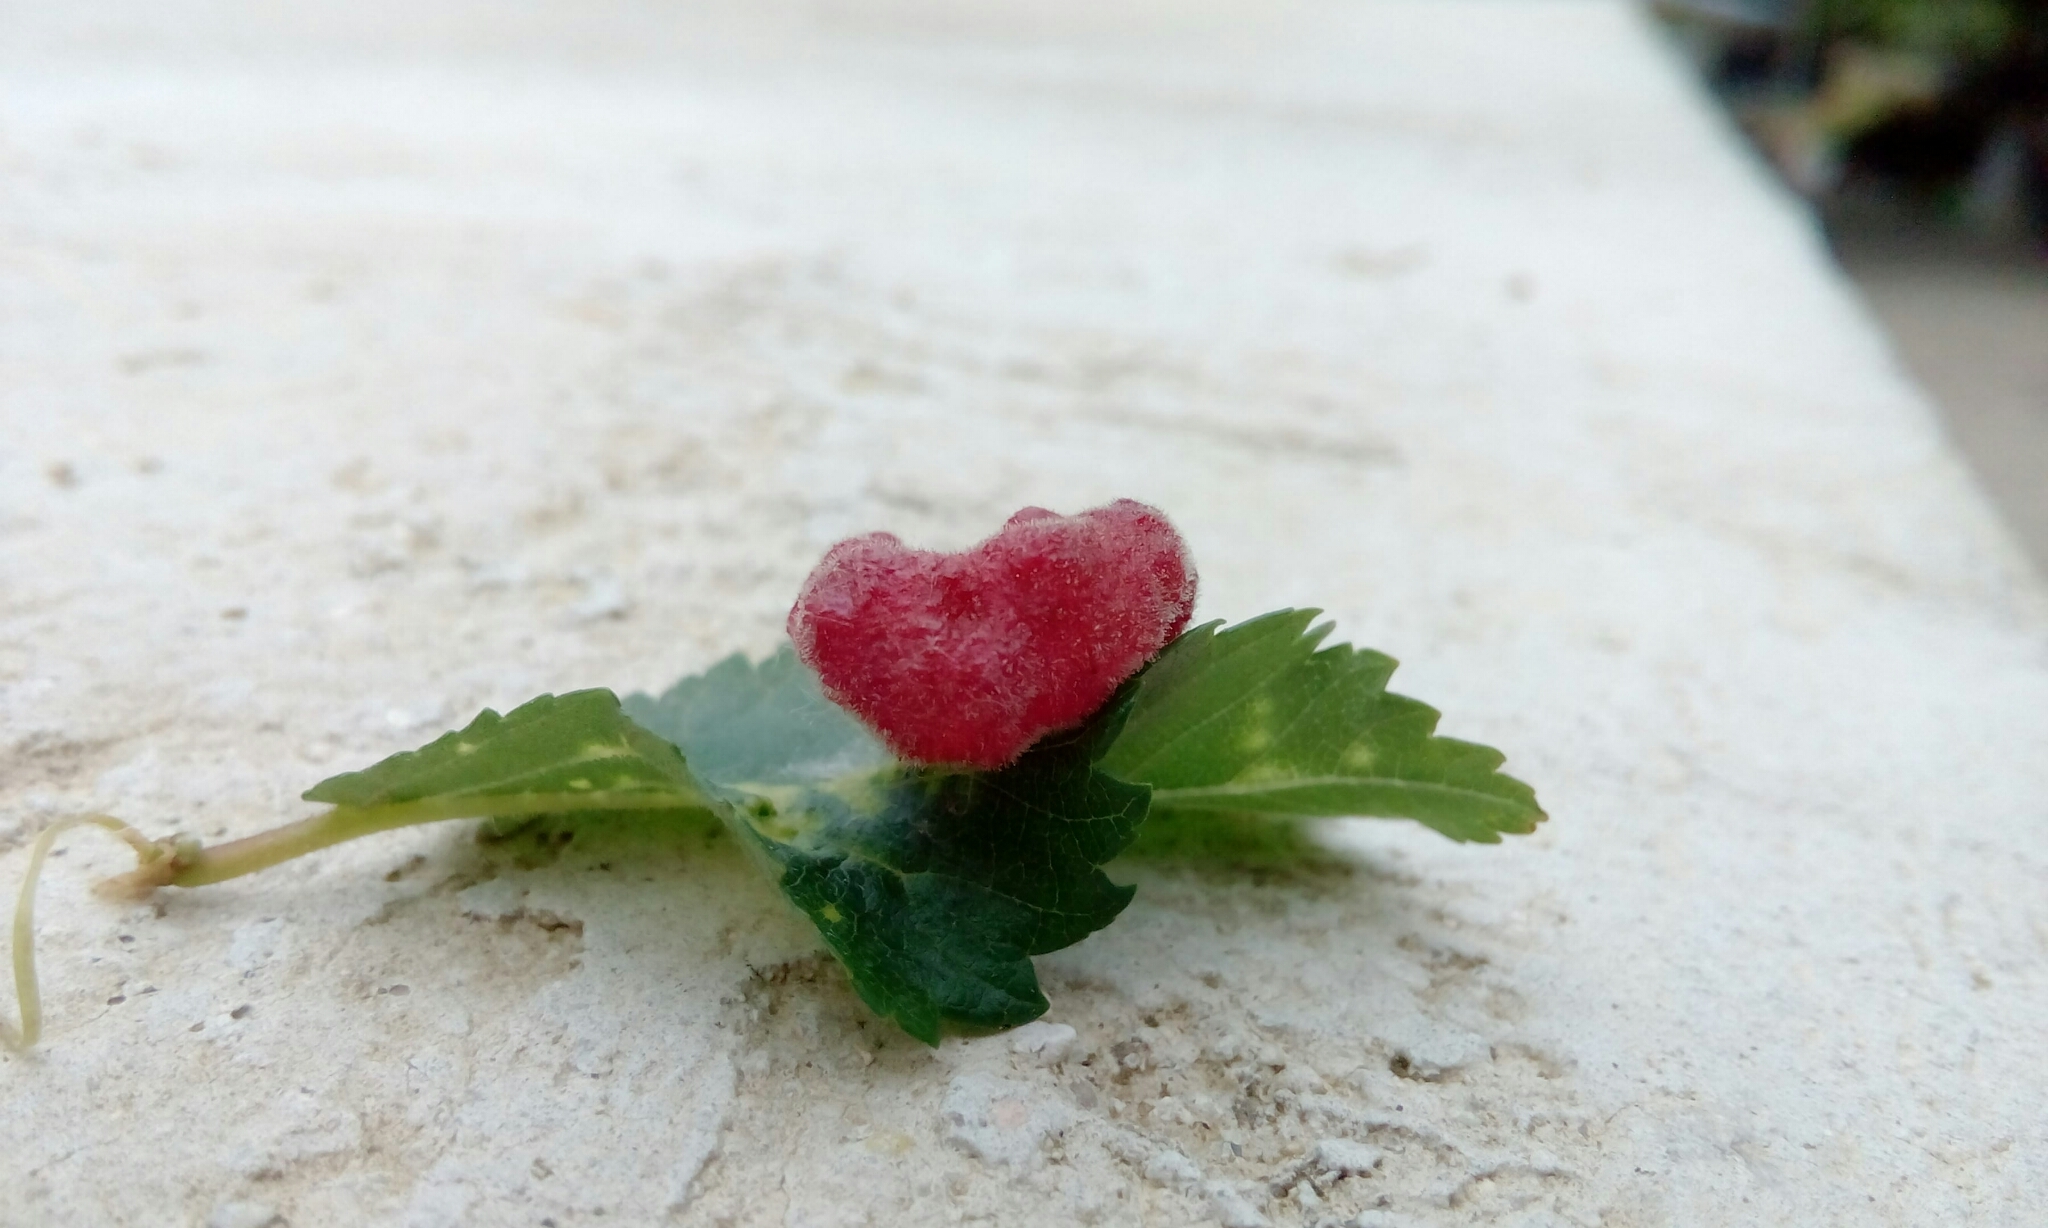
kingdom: Animalia
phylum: Arthropoda
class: Insecta
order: Hemiptera
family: Aphididae
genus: Tetraneura
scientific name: Tetraneura caerulescens
